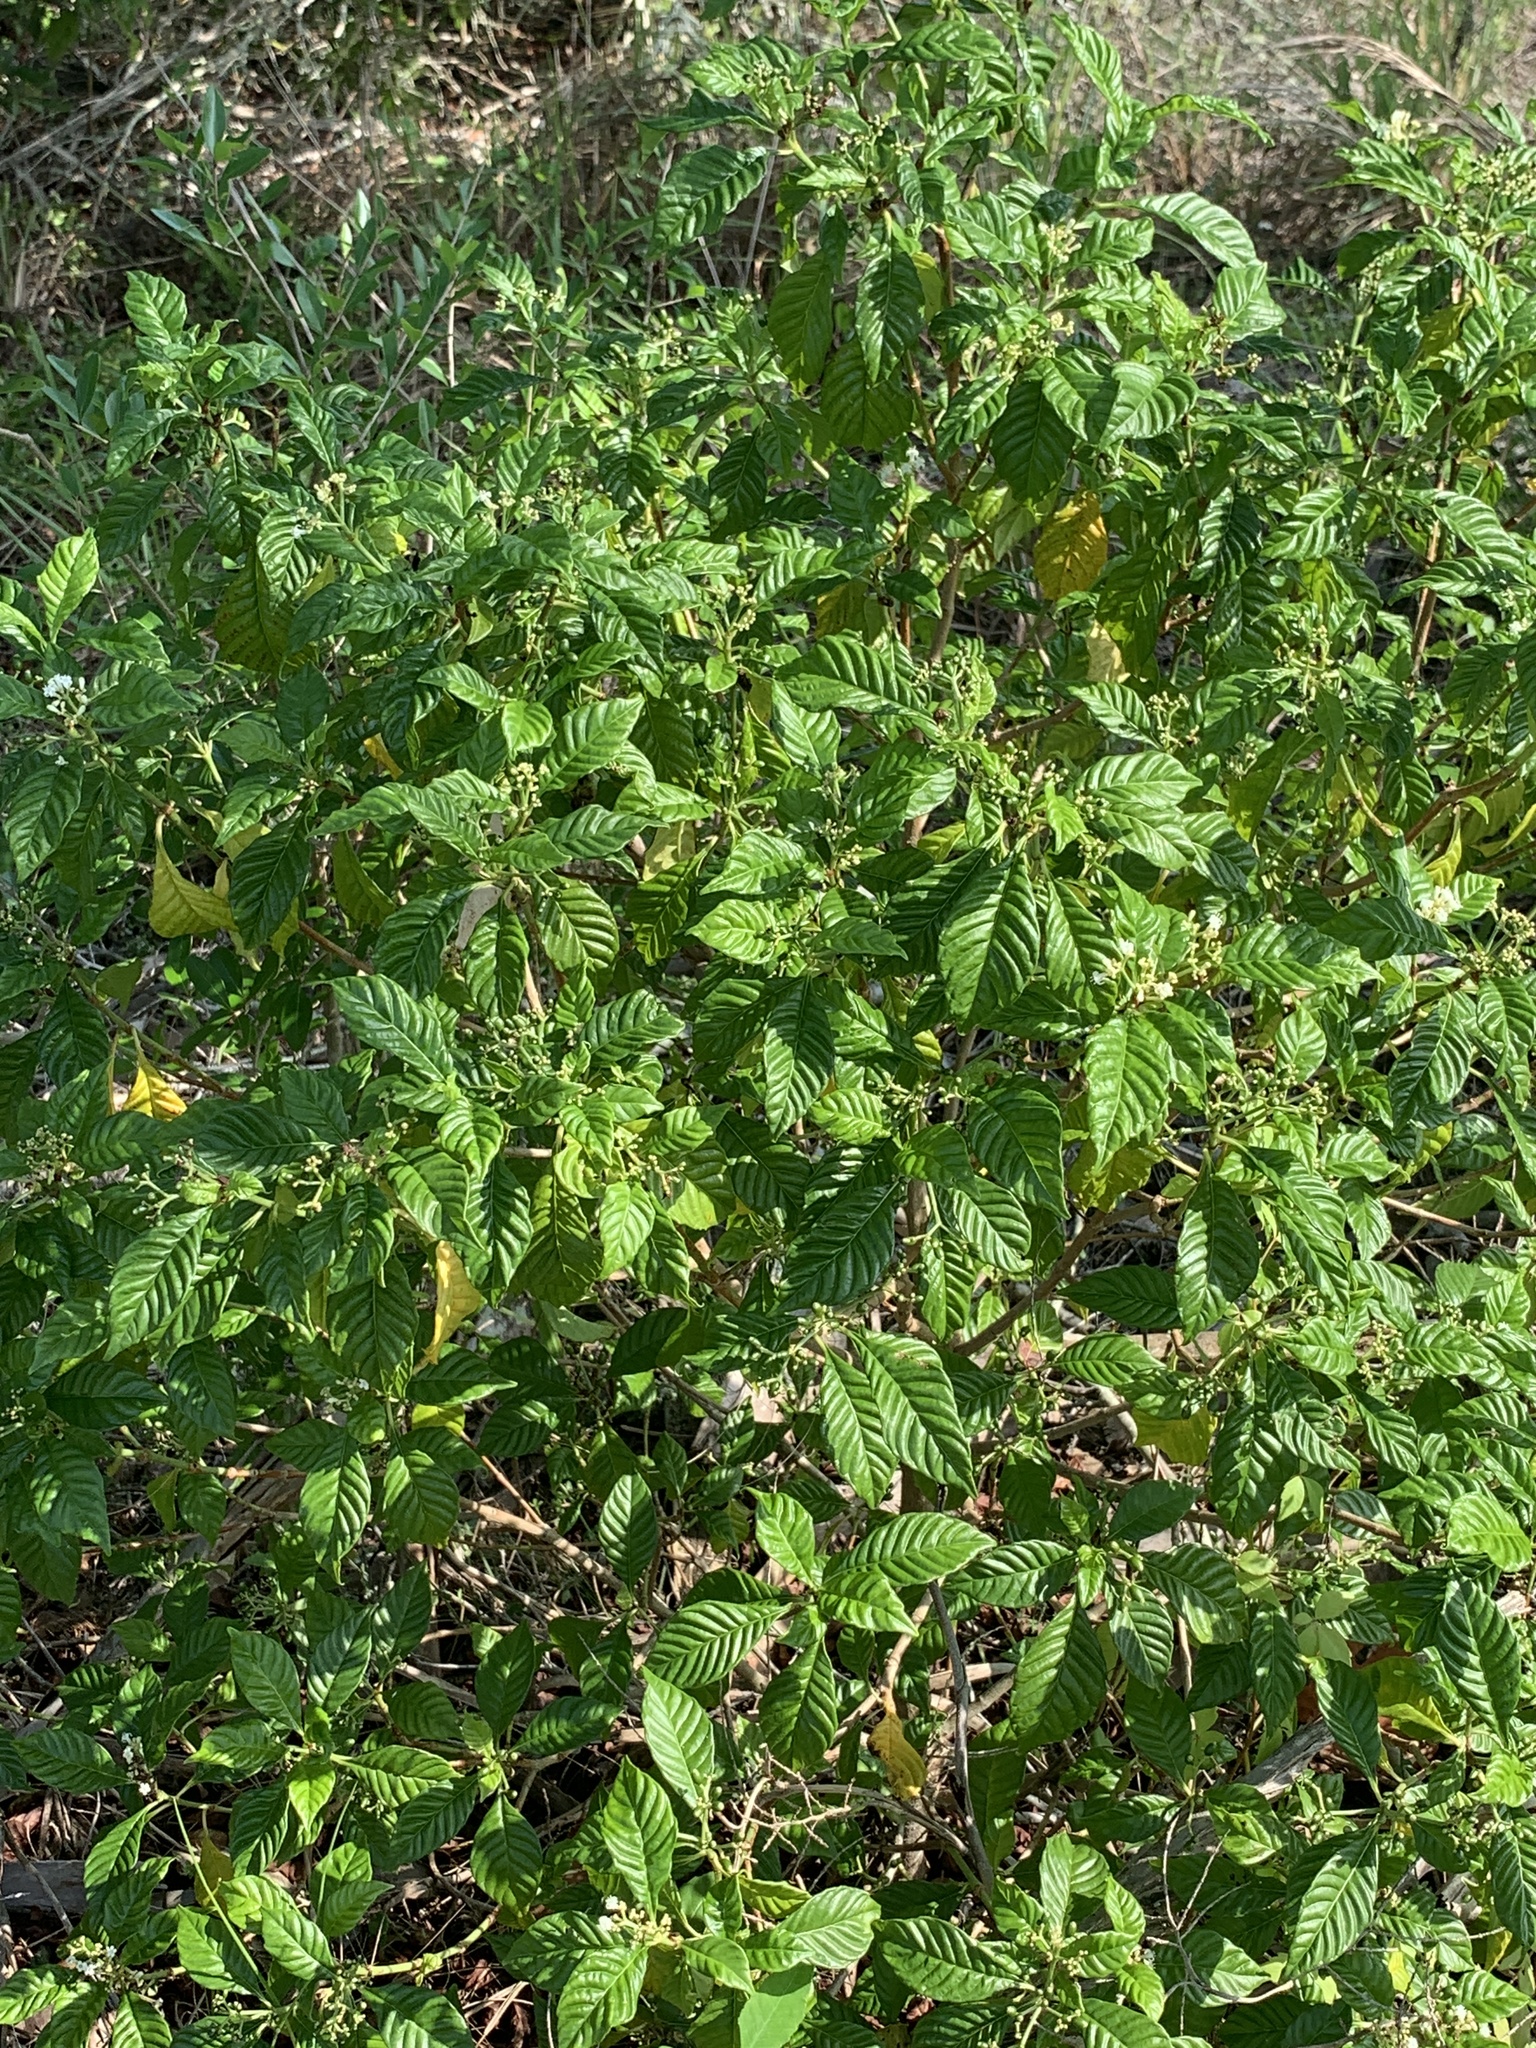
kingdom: Plantae
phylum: Tracheophyta
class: Magnoliopsida
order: Gentianales
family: Rubiaceae
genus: Psychotria
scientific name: Psychotria nervosa
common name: Bastard cankerberry
